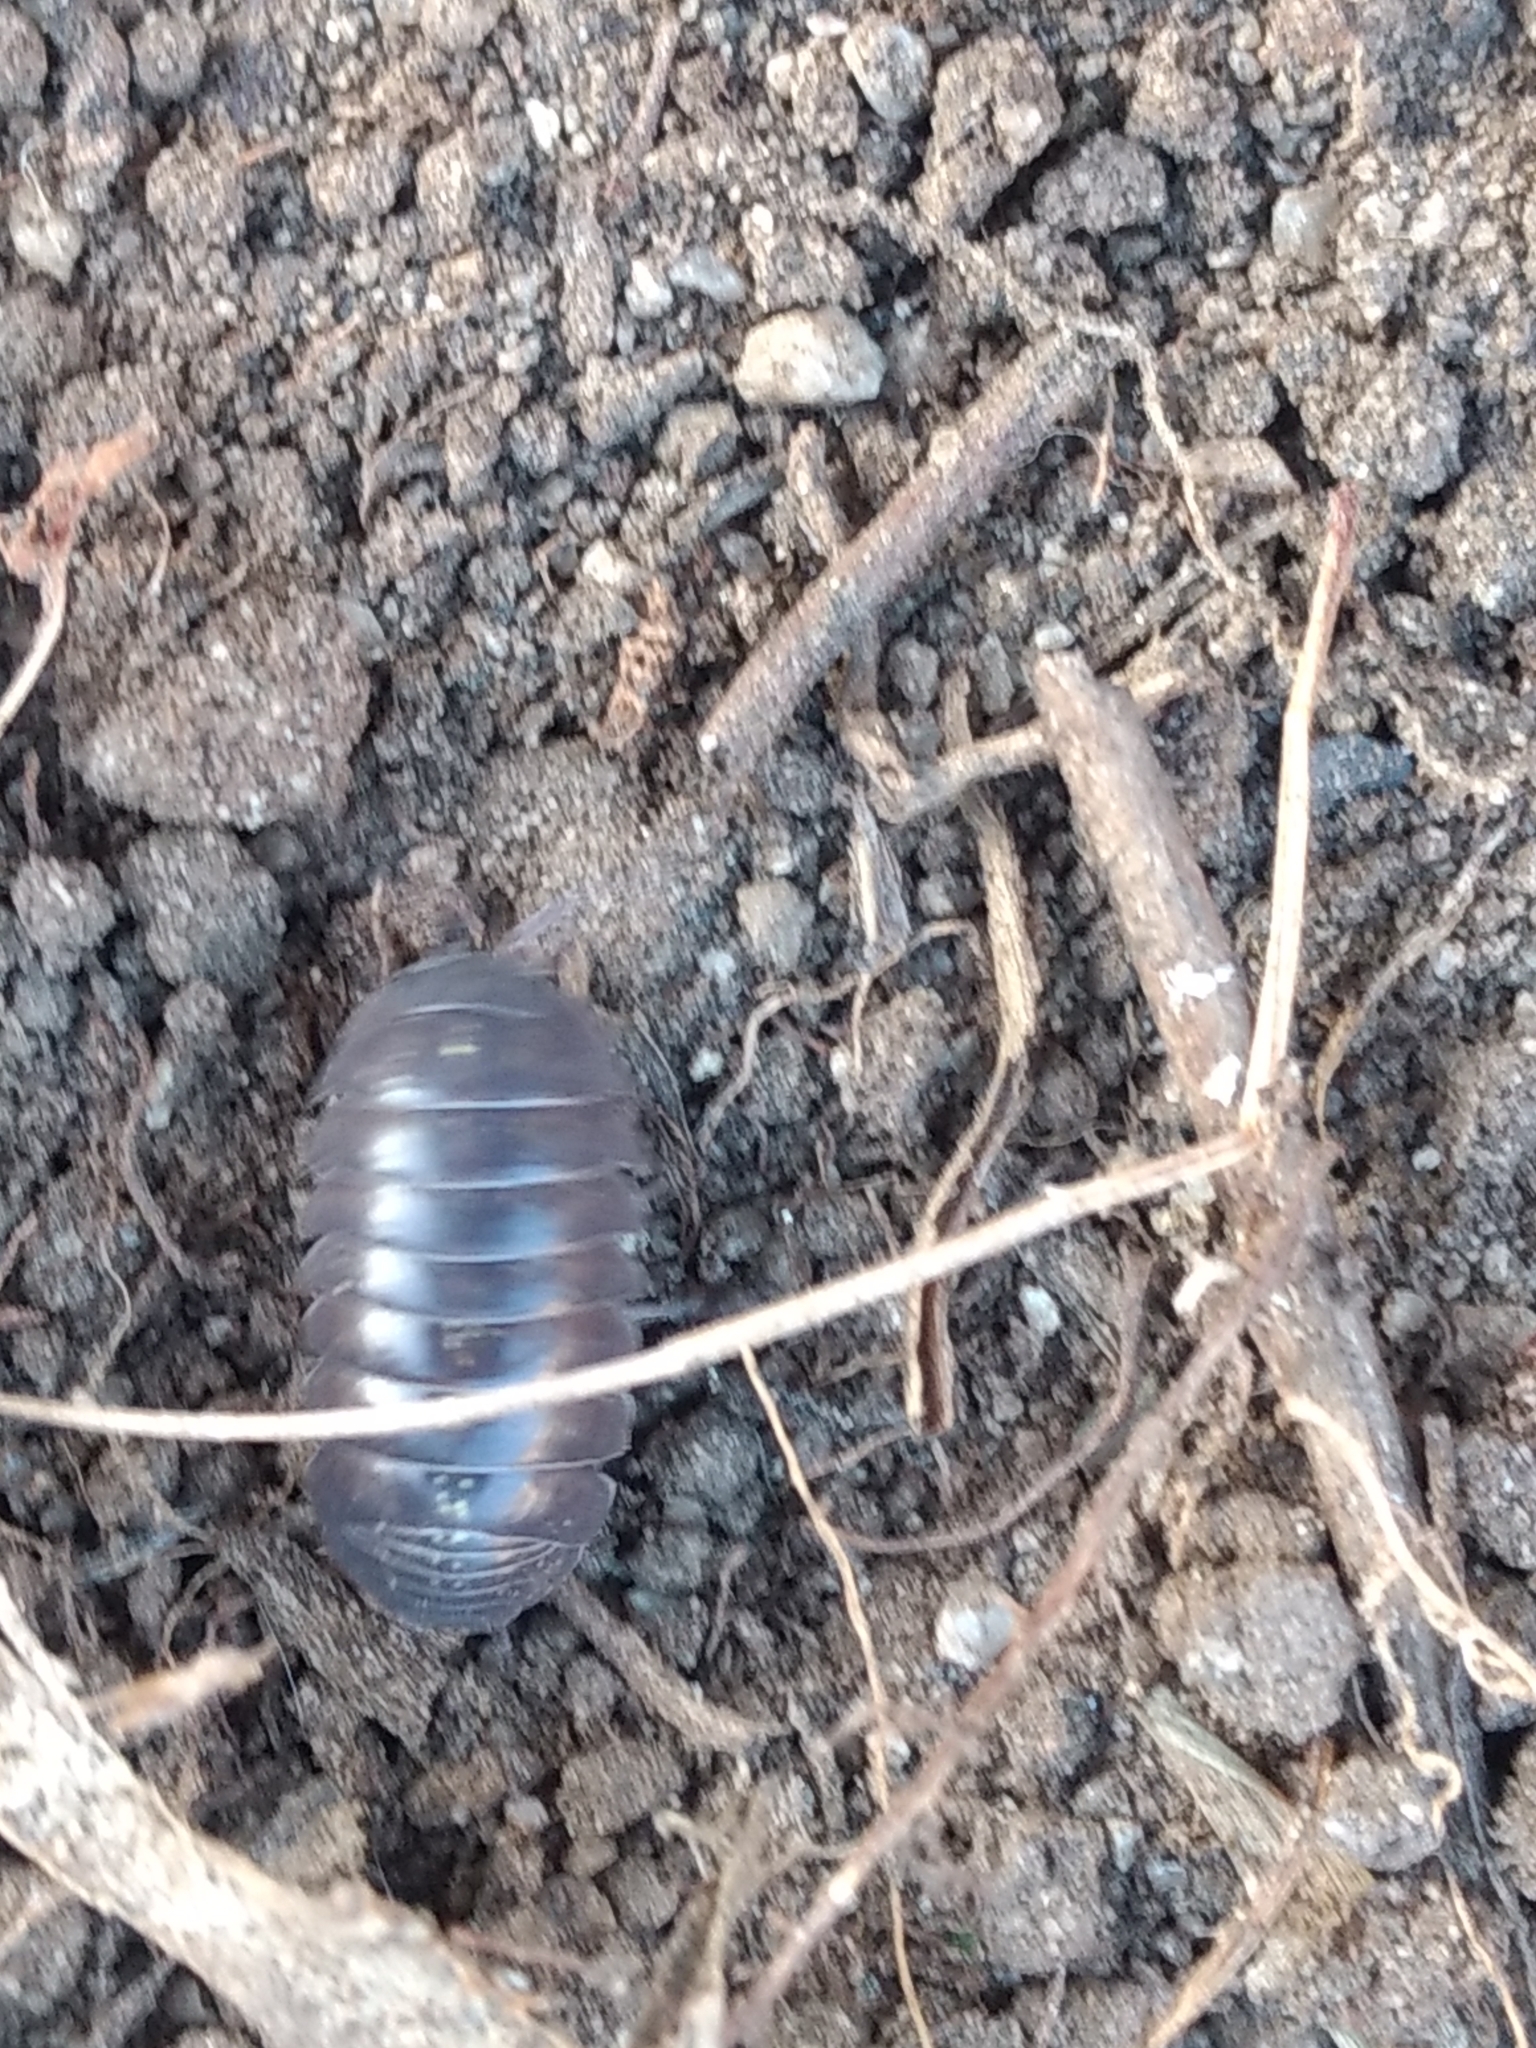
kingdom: Animalia
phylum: Arthropoda
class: Malacostraca
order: Isopoda
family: Armadillidiidae
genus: Armadillidium
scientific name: Armadillidium vulgare
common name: Common pill woodlouse
